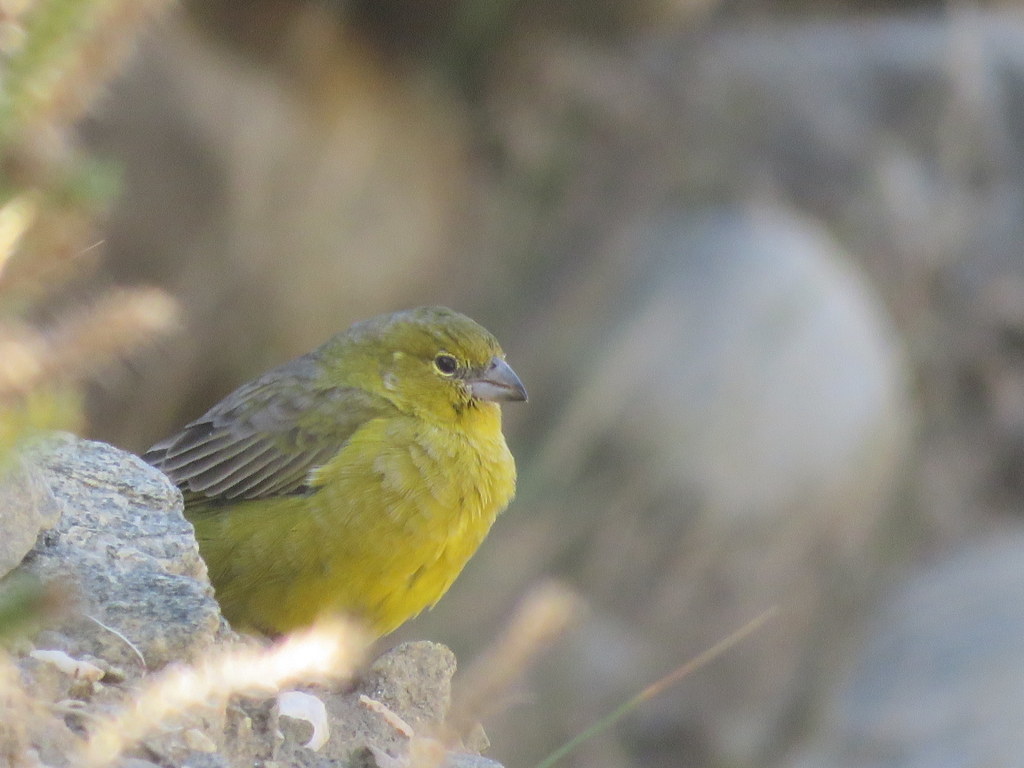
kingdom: Animalia
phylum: Chordata
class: Aves
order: Passeriformes
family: Thraupidae
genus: Sicalis
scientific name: Sicalis olivascens
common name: Greenish yellow finch
